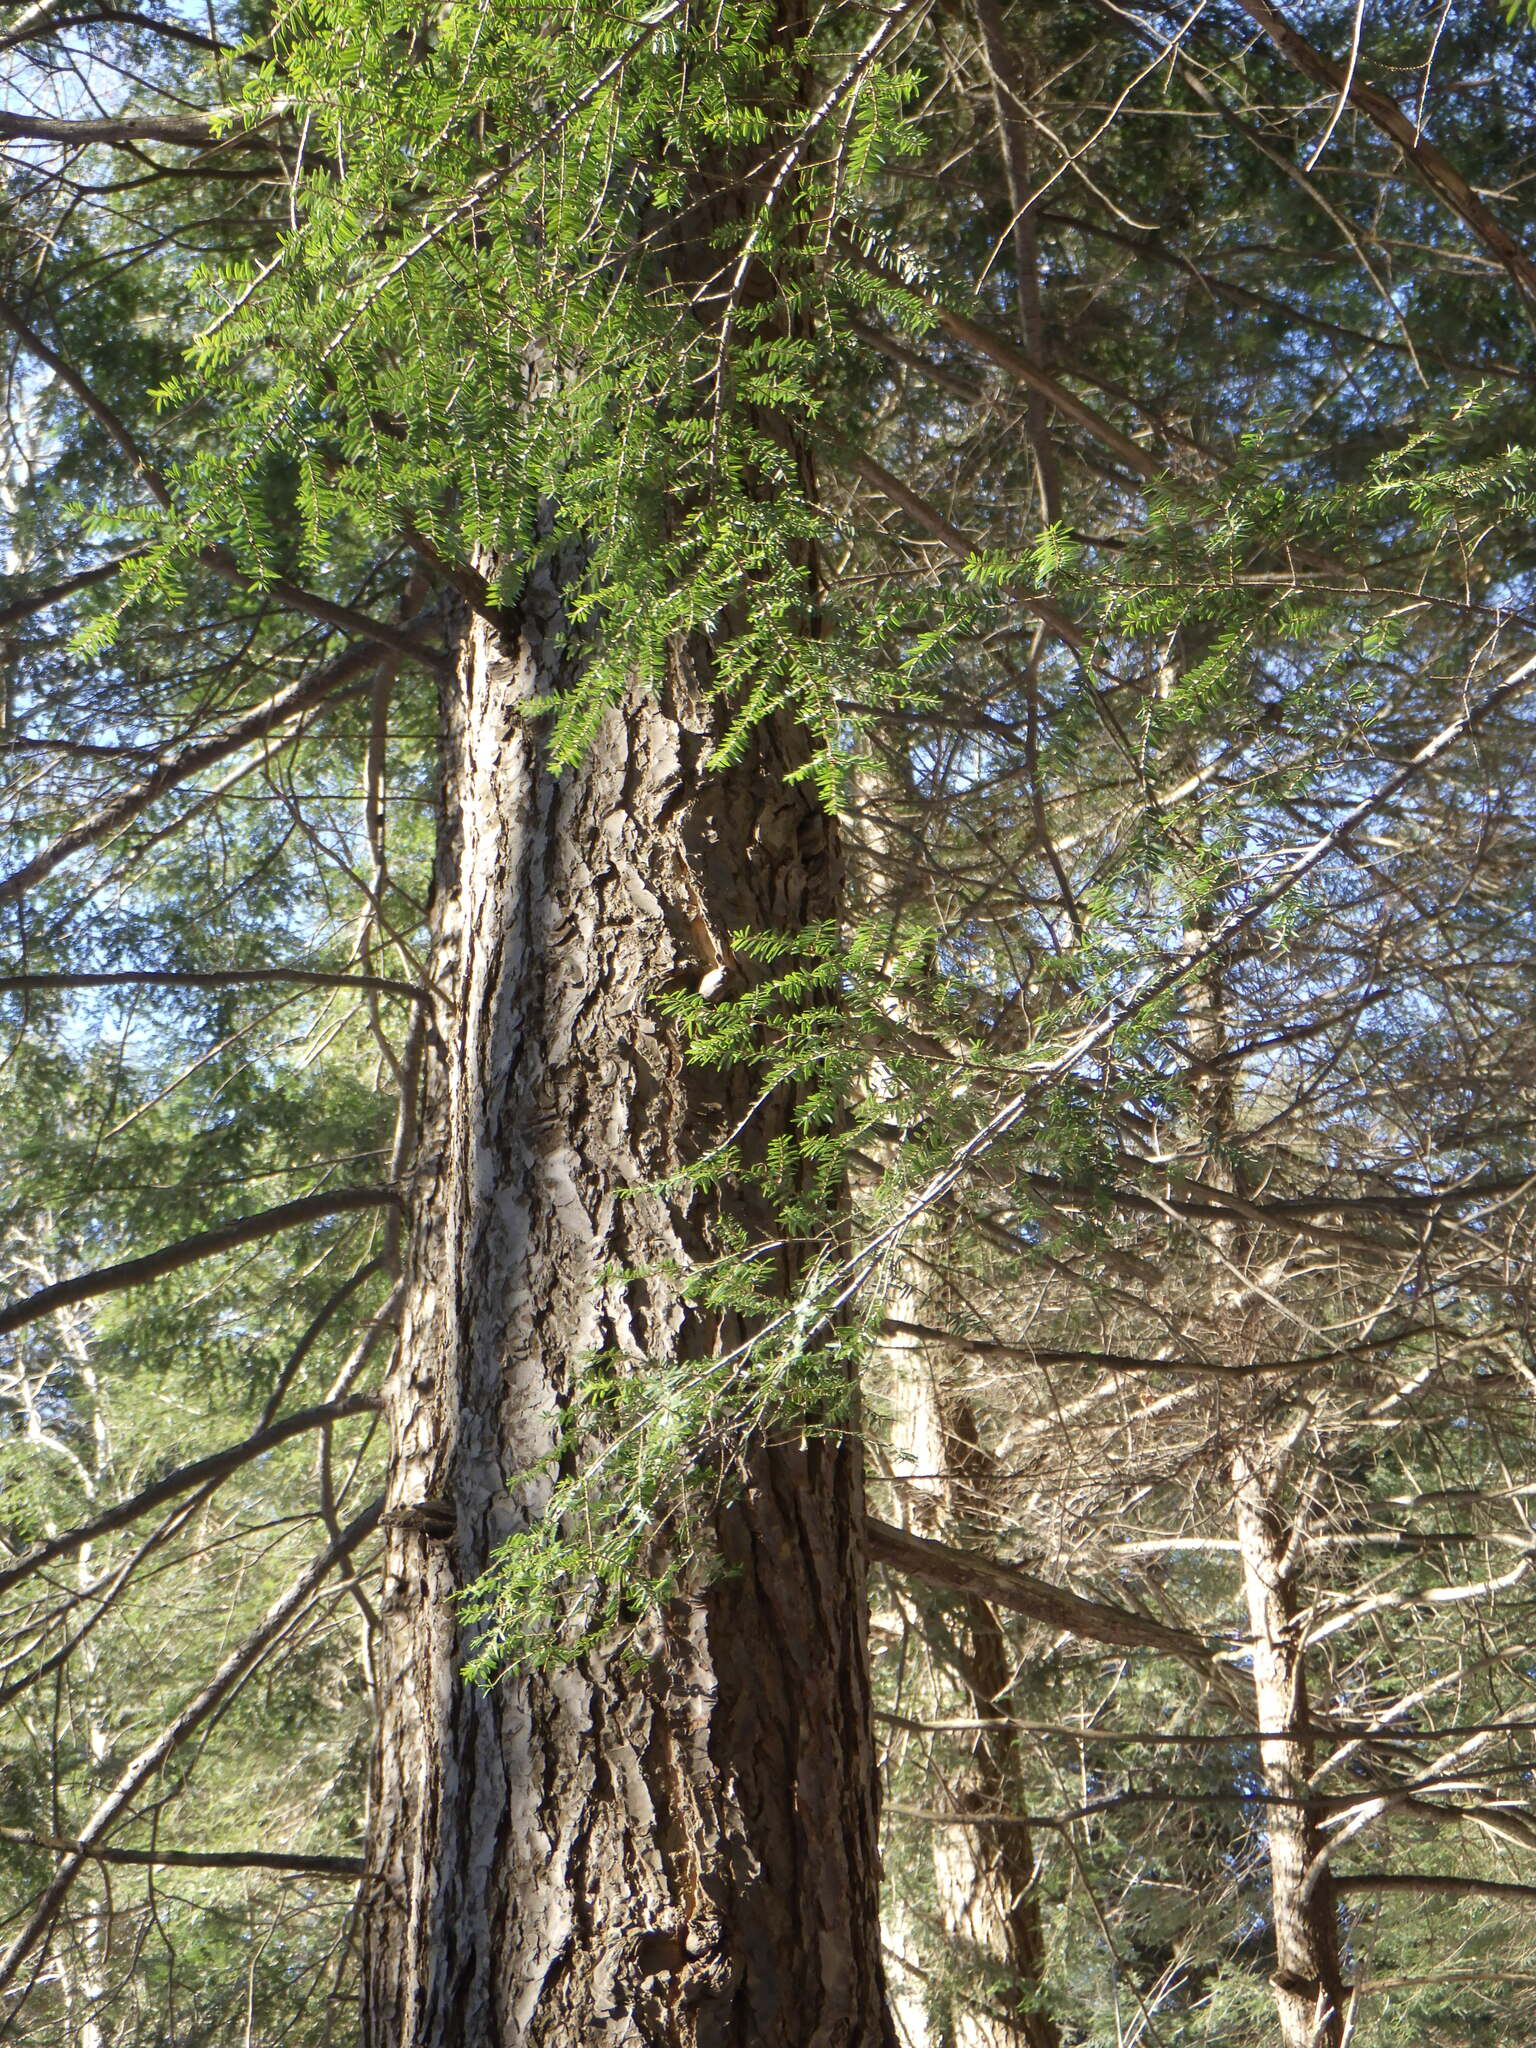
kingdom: Plantae
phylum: Tracheophyta
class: Pinopsida
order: Pinales
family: Pinaceae
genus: Tsuga
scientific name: Tsuga canadensis
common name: Eastern hemlock
